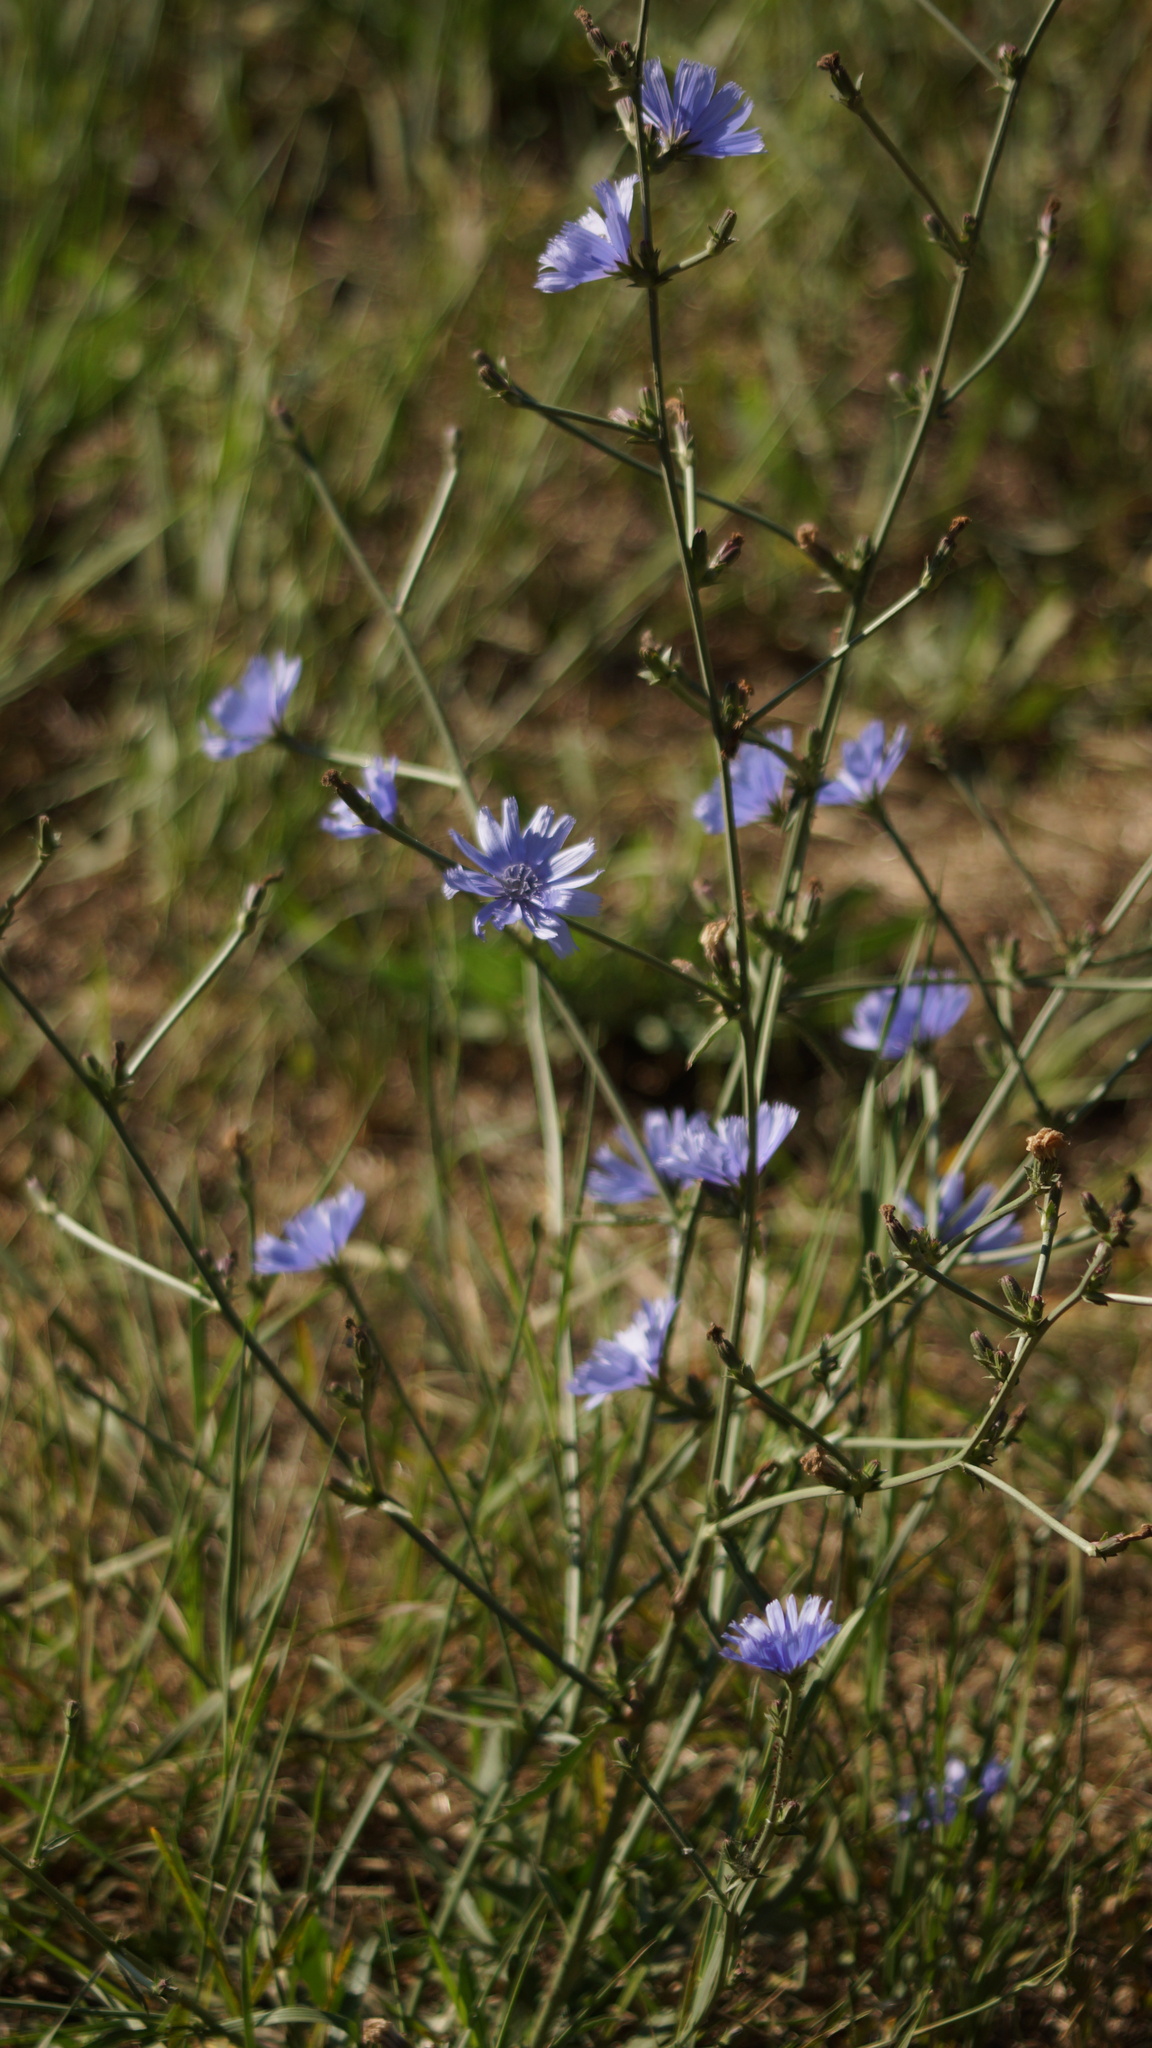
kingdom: Plantae
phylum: Tracheophyta
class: Magnoliopsida
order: Asterales
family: Asteraceae
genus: Cichorium
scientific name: Cichorium intybus
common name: Chicory
